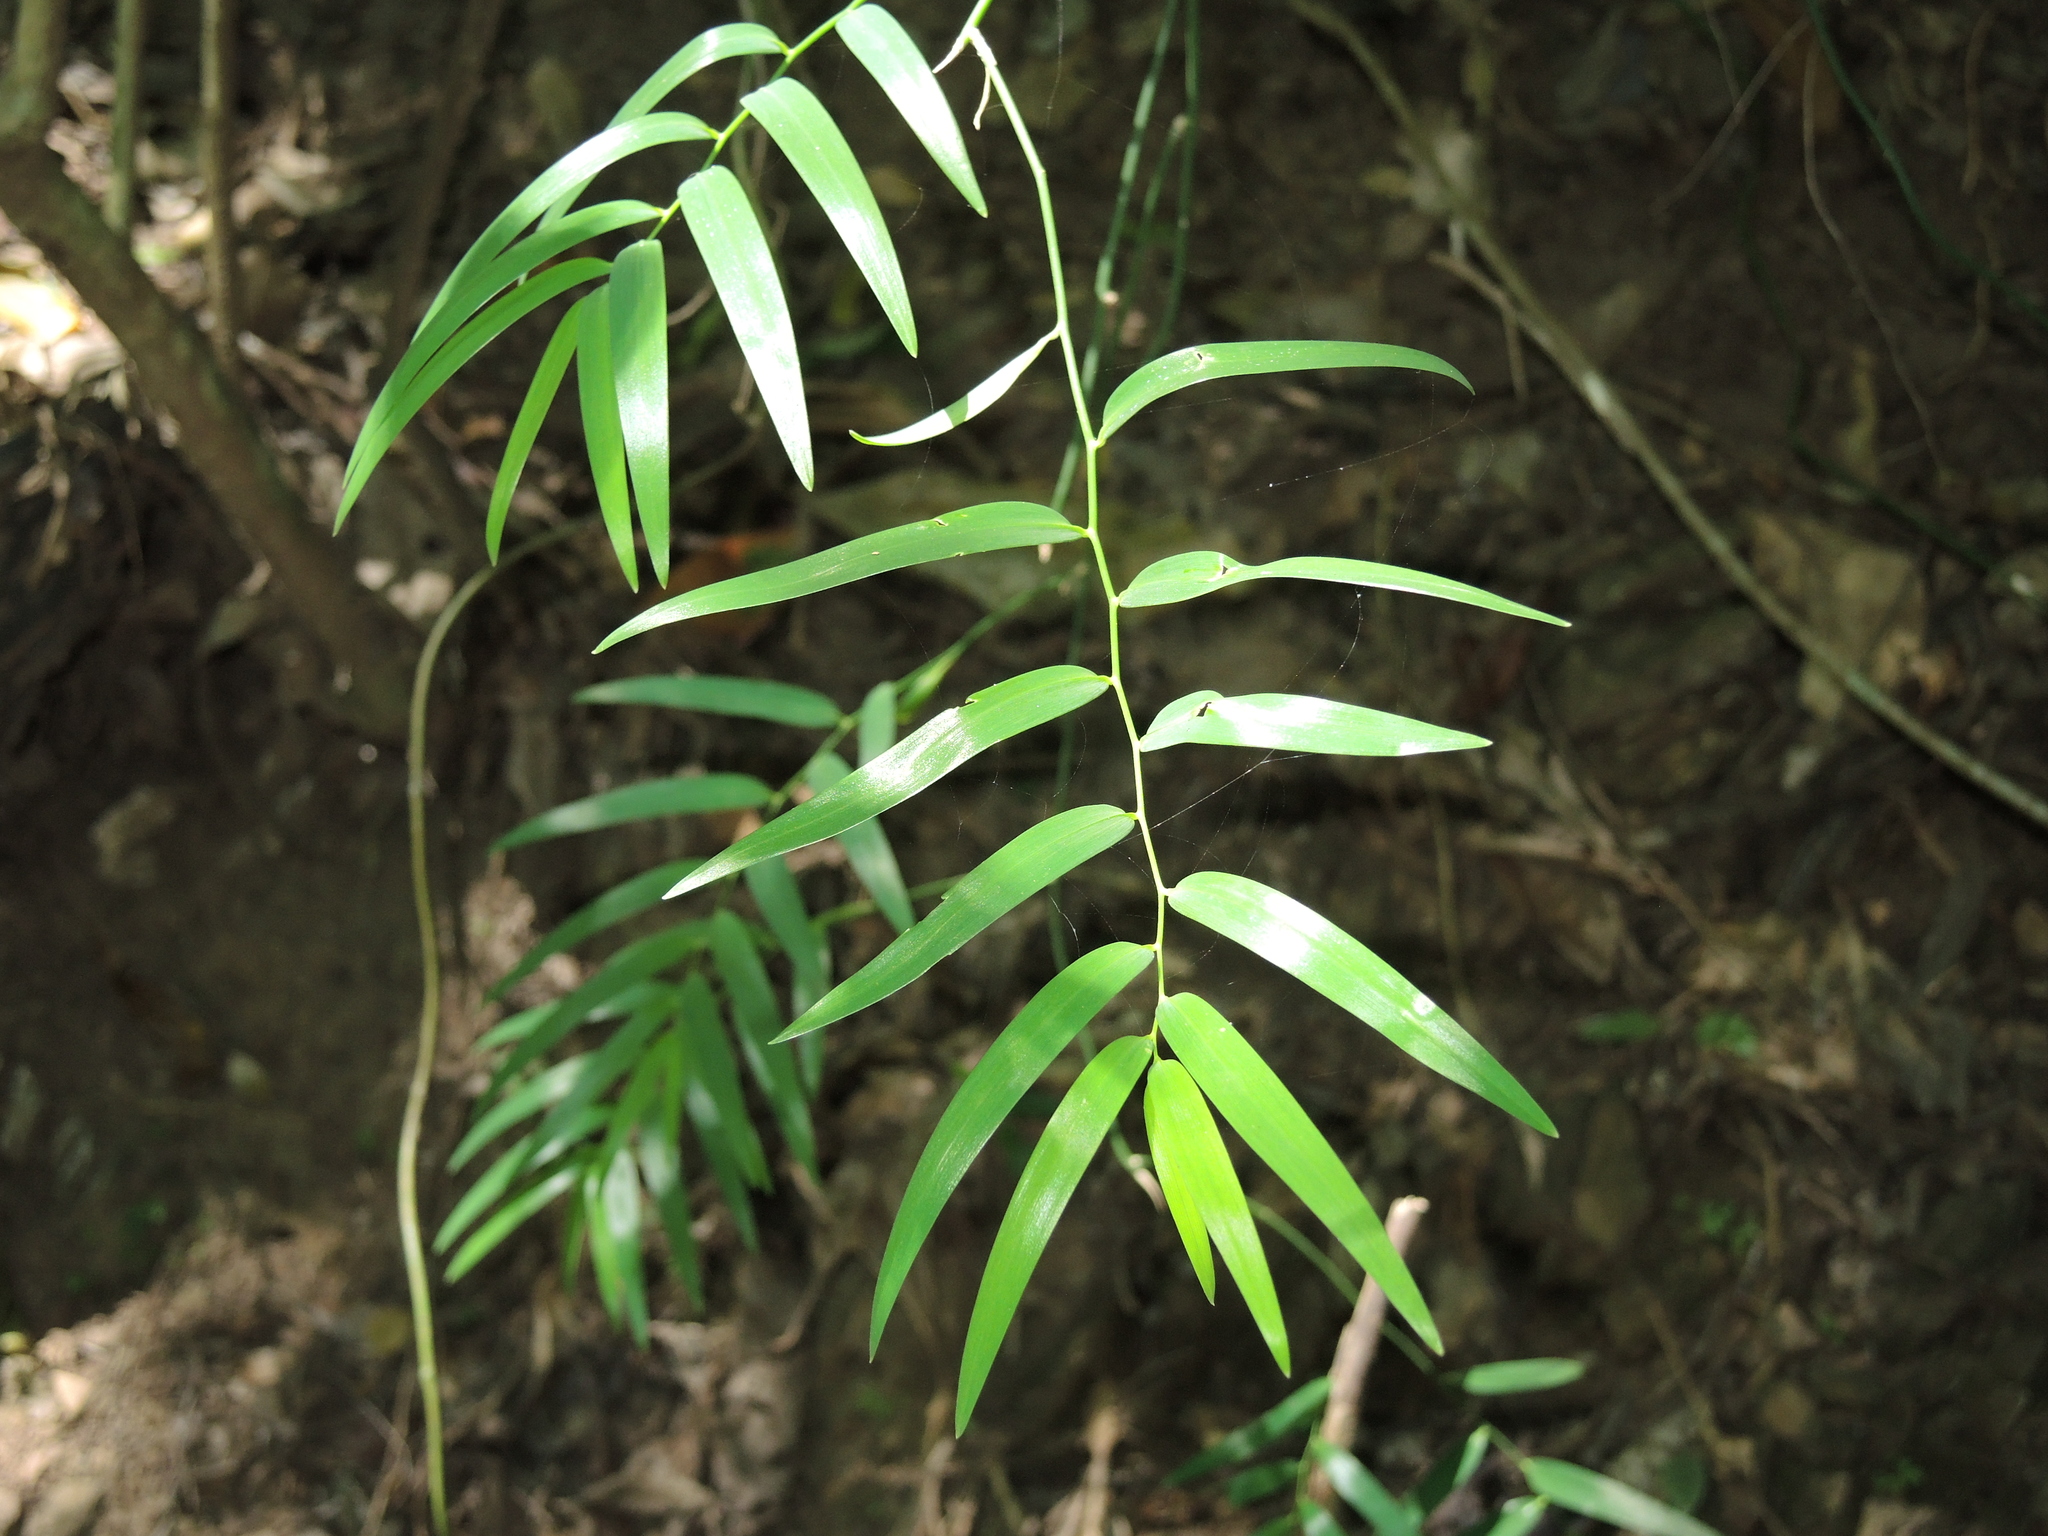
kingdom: Plantae
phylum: Tracheophyta
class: Liliopsida
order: Asparagales
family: Asphodelaceae
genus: Geitonoplesium
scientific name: Geitonoplesium cymosum
